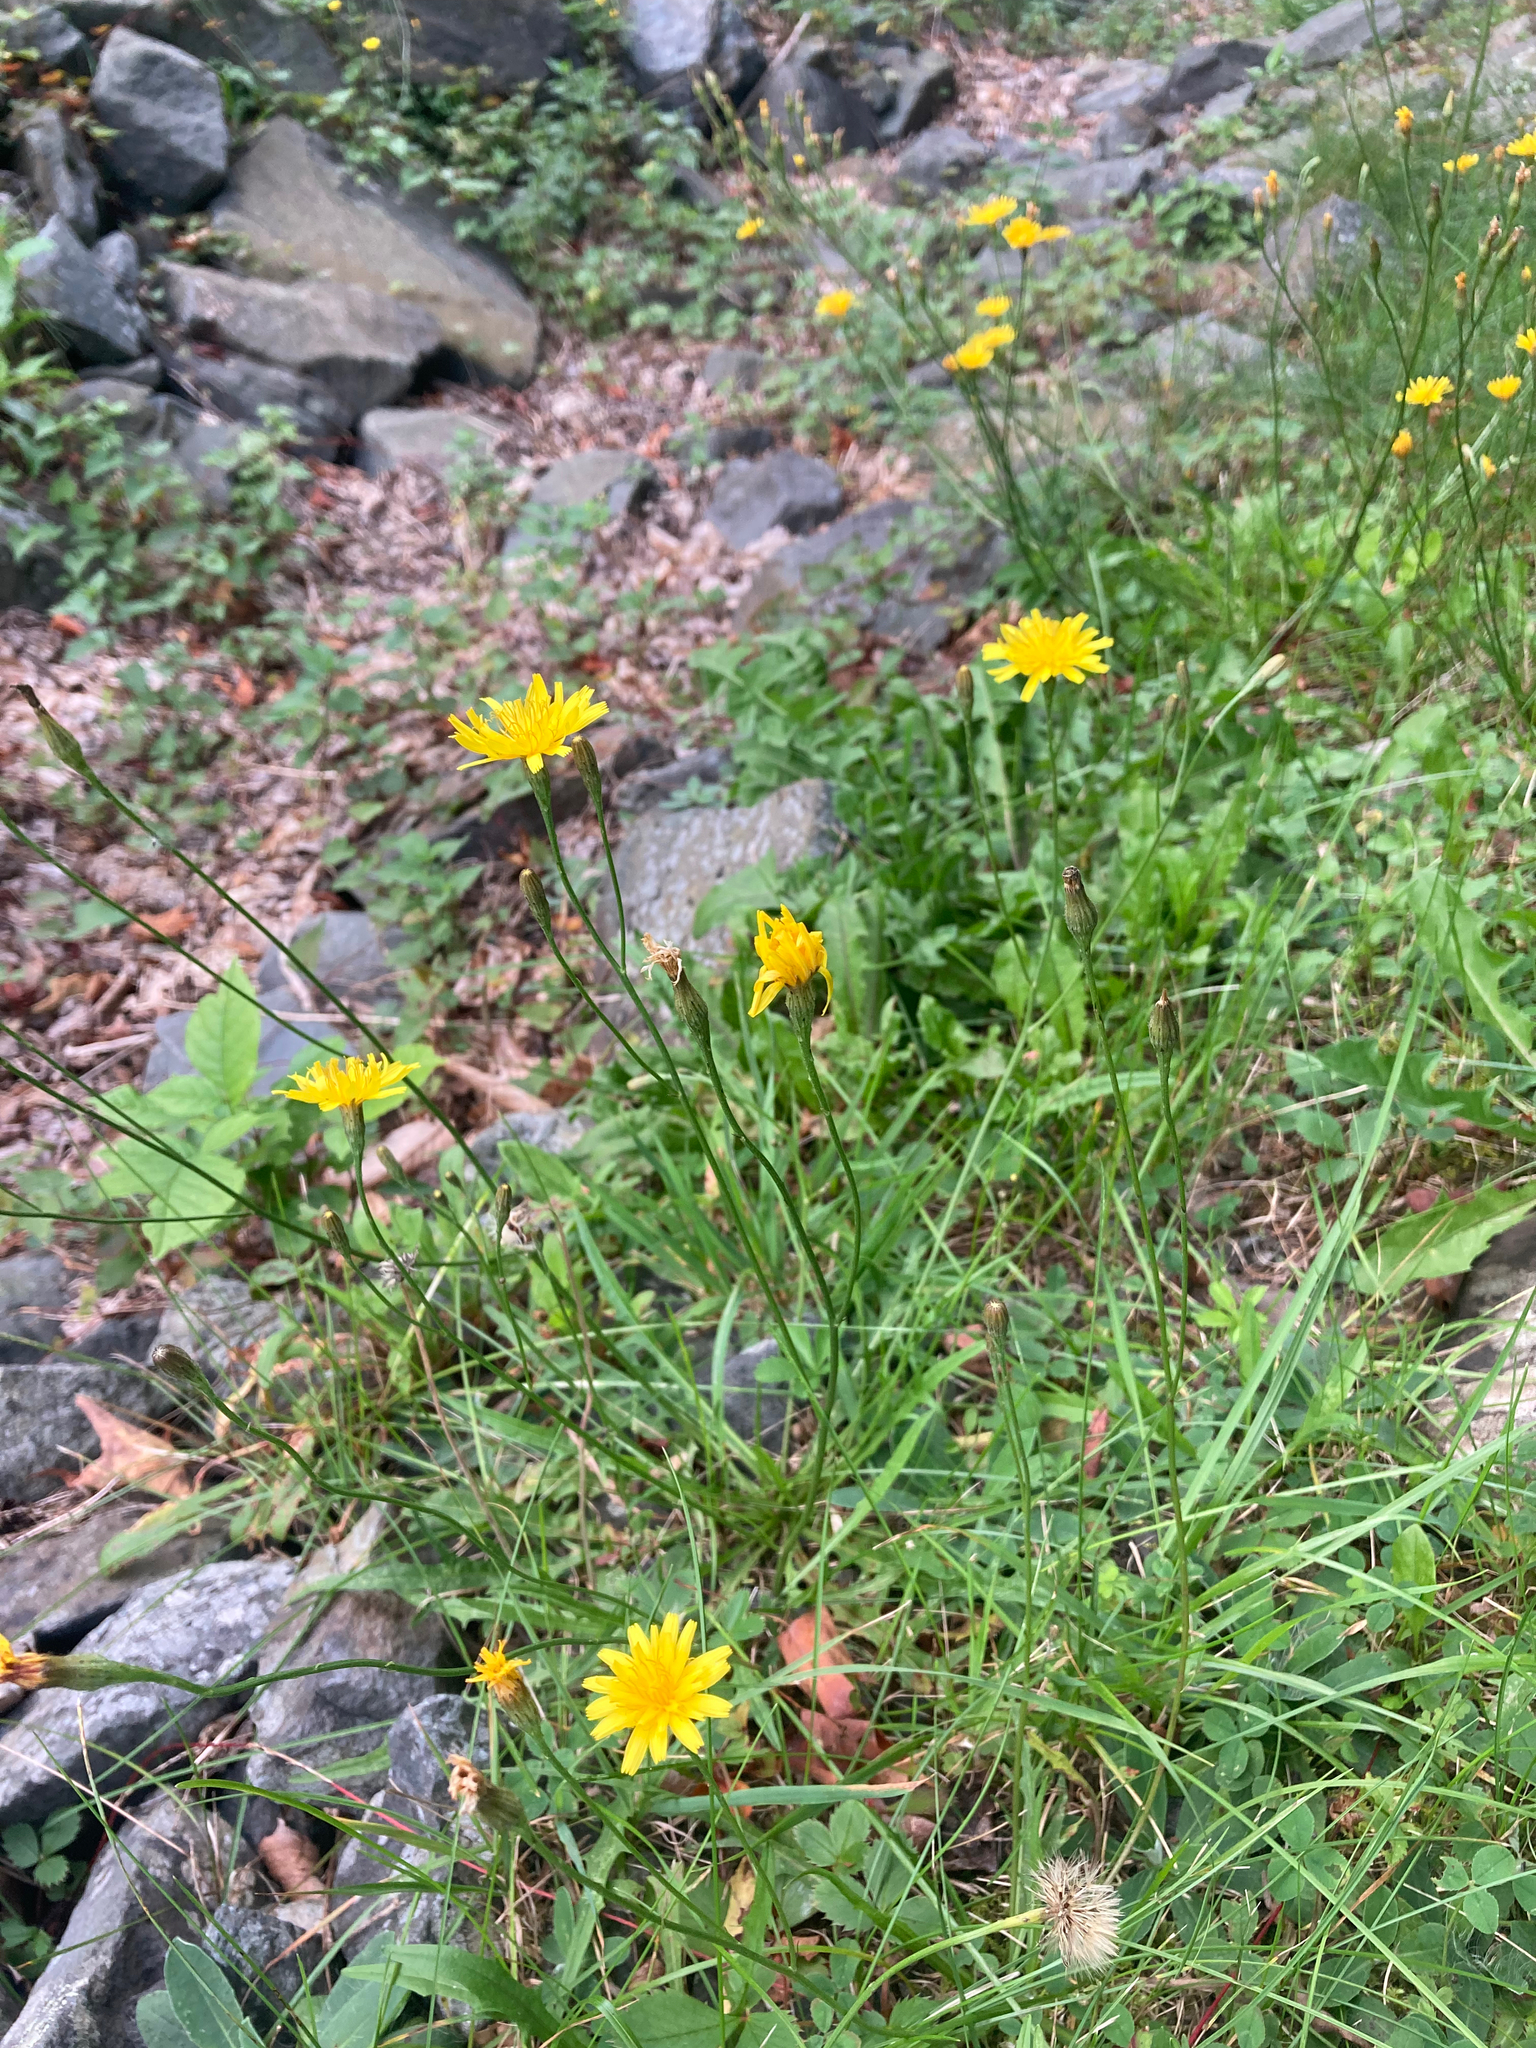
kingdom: Plantae
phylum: Tracheophyta
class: Magnoliopsida
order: Asterales
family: Asteraceae
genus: Scorzoneroides
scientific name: Scorzoneroides autumnalis
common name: Autumn hawkbit
